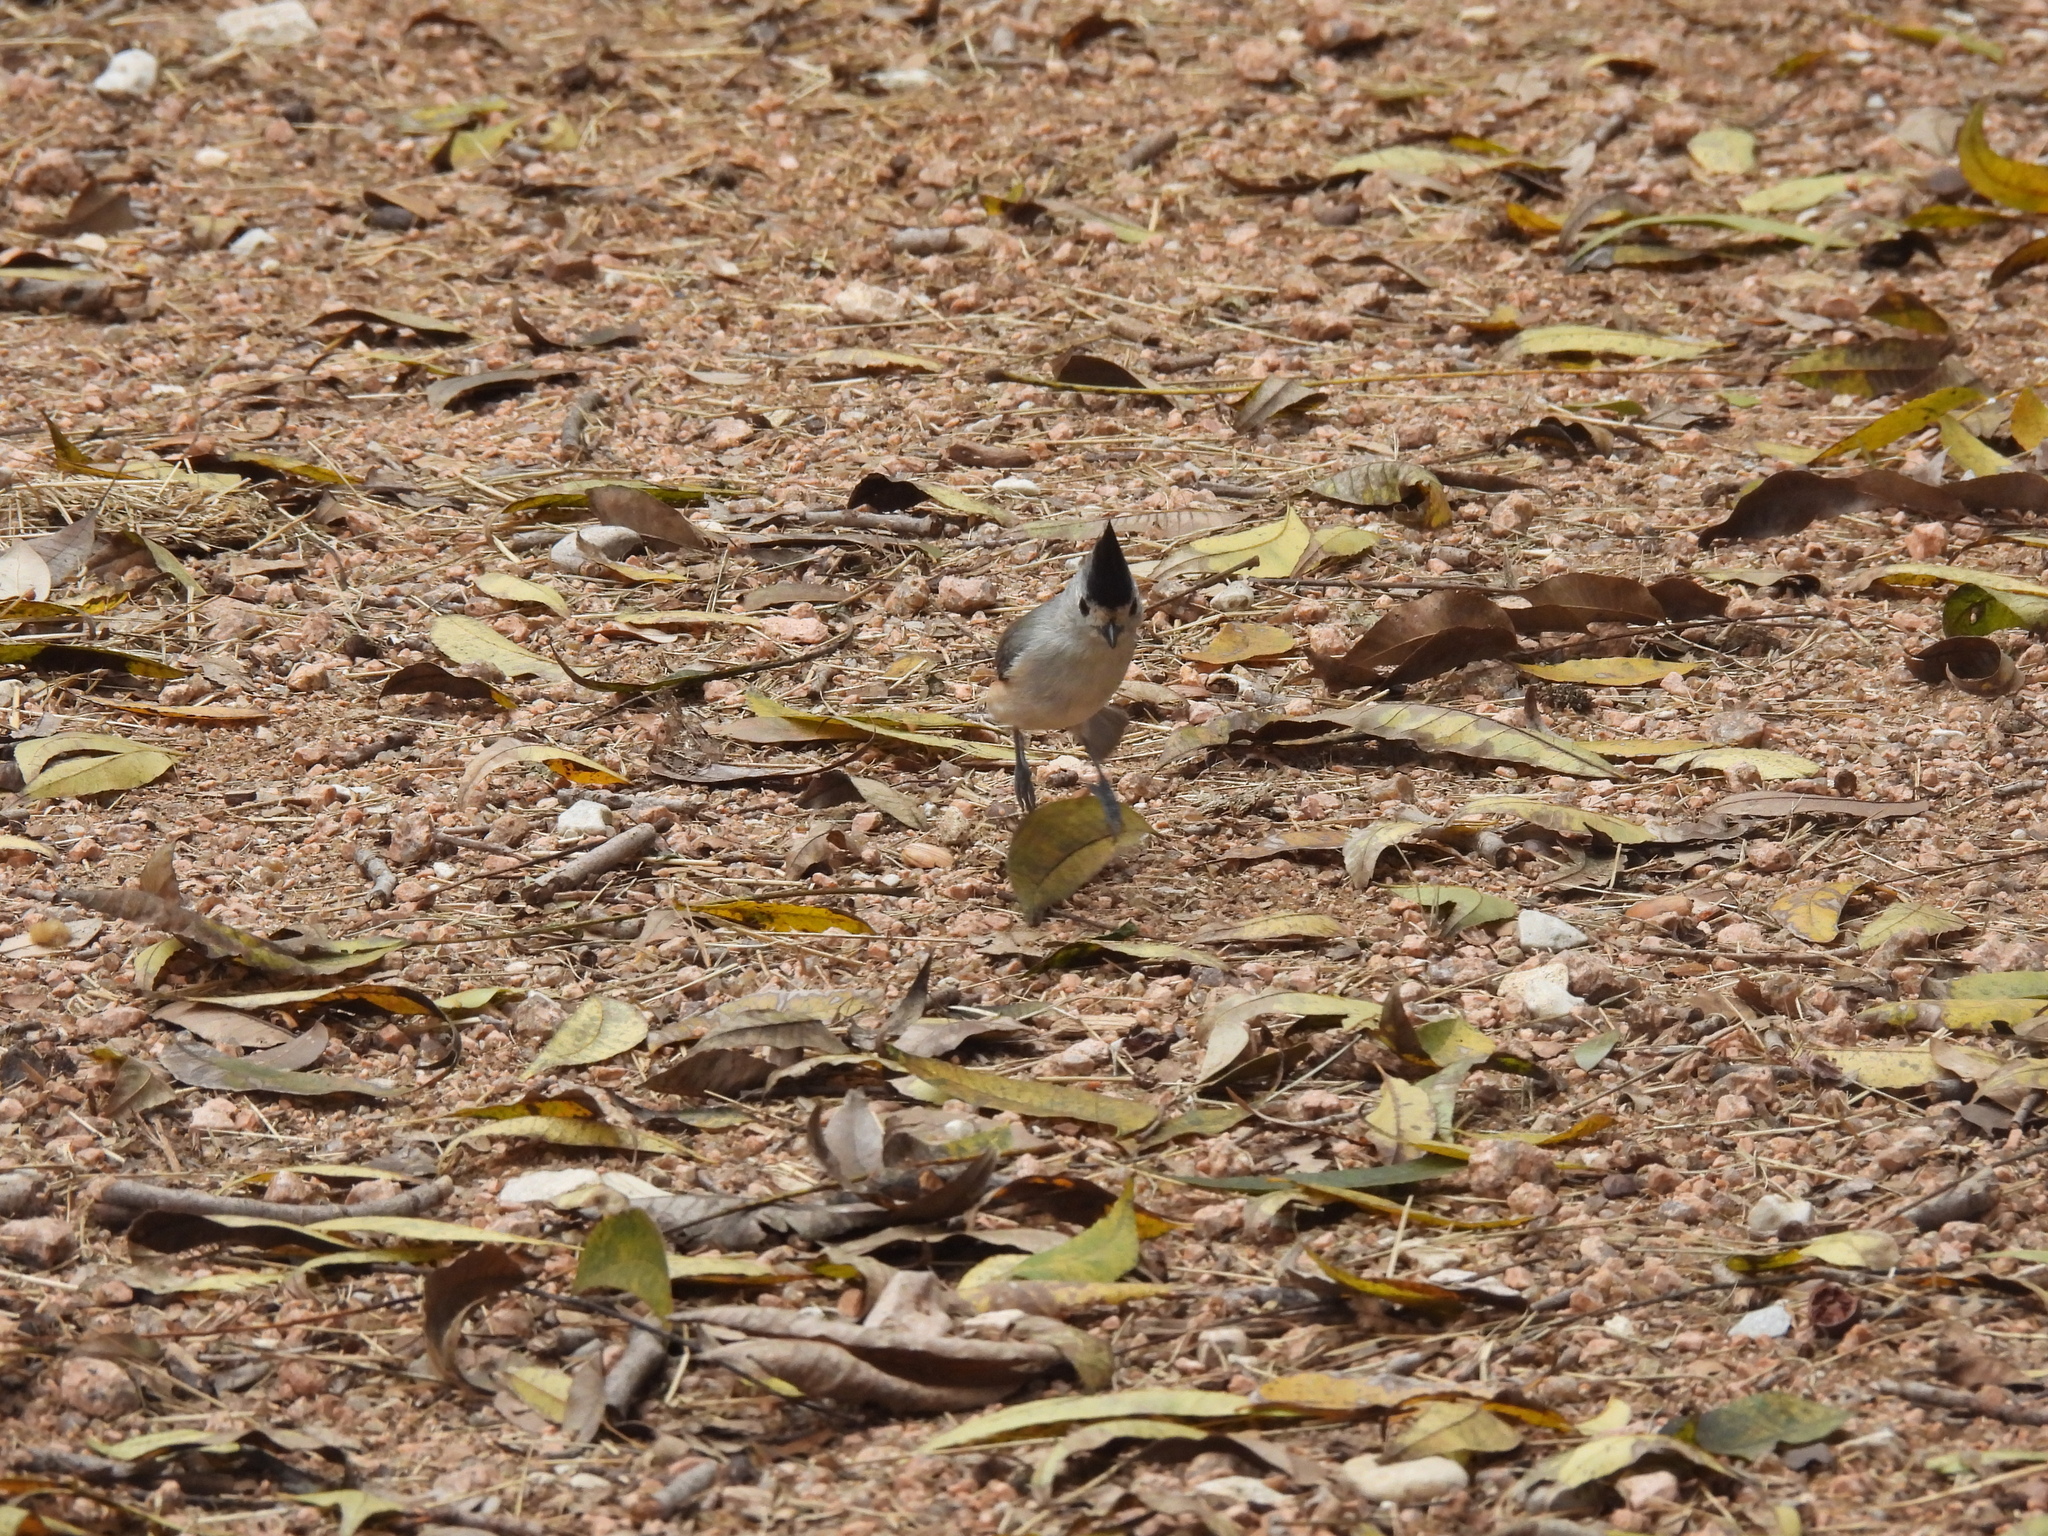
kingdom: Animalia
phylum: Chordata
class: Aves
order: Passeriformes
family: Paridae
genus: Baeolophus
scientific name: Baeolophus atricristatus
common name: Black-crested titmouse
